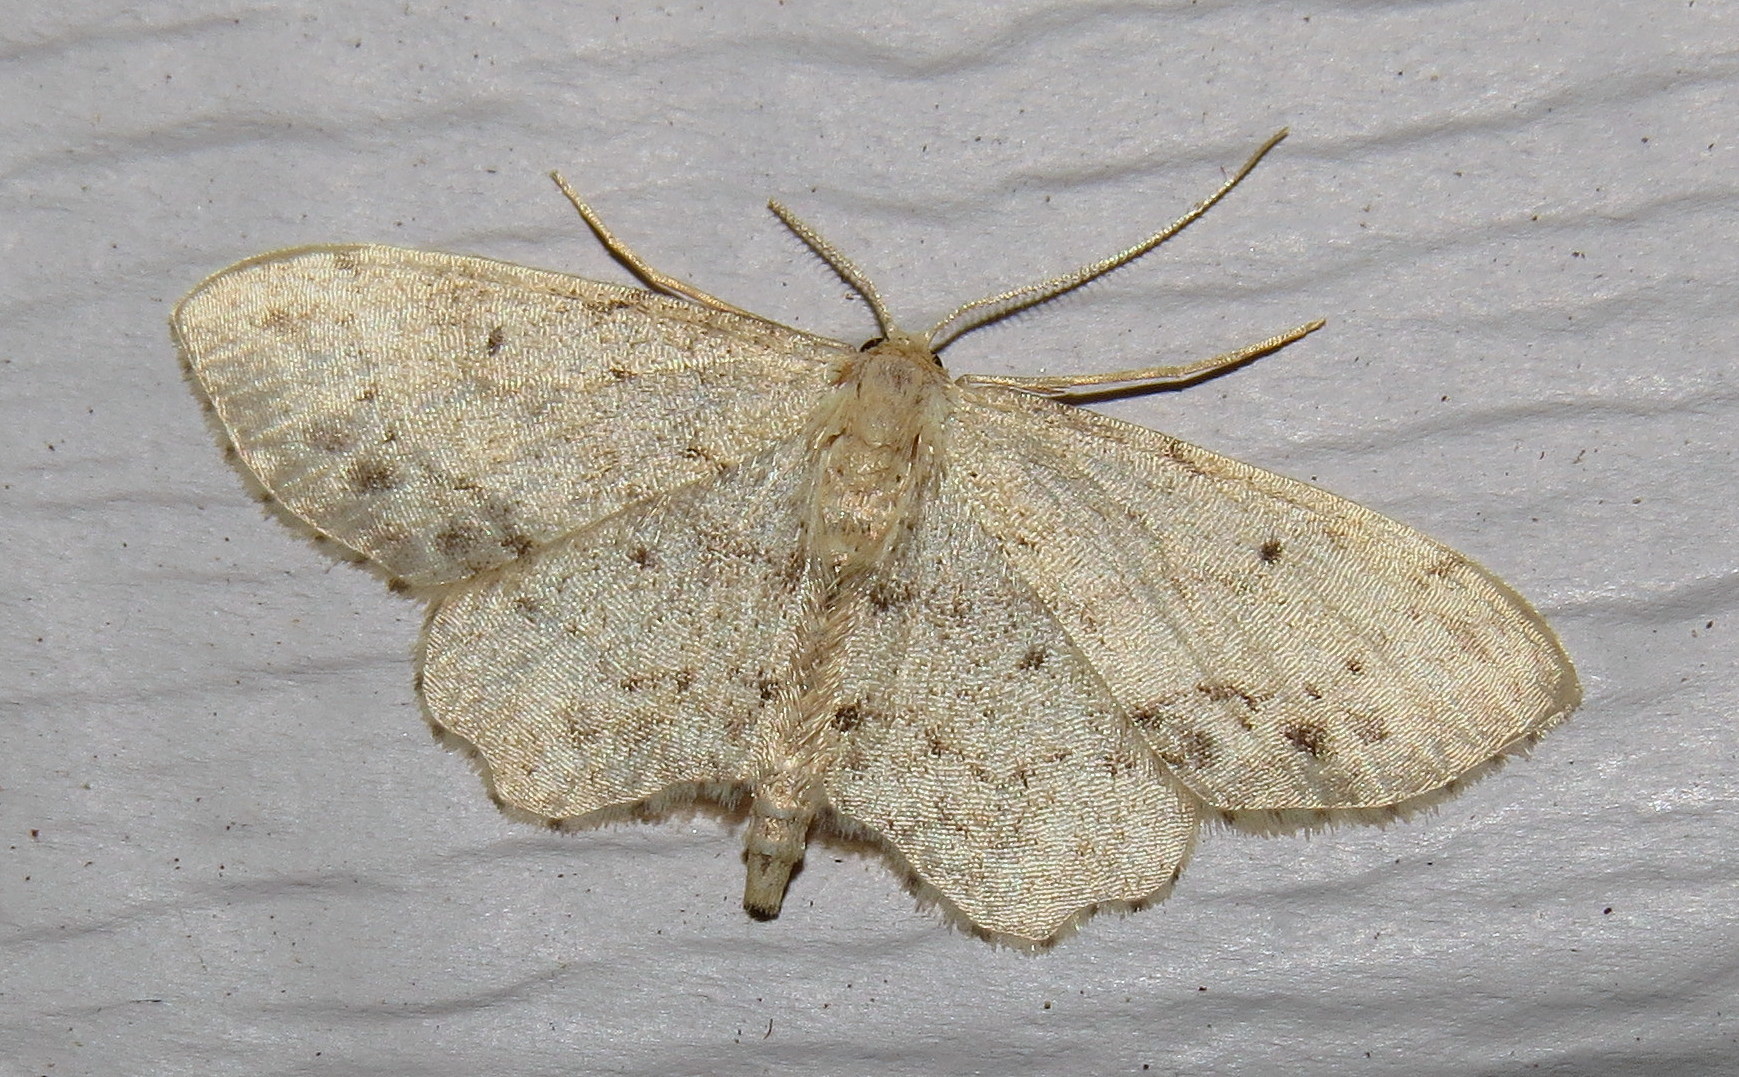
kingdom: Animalia
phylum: Arthropoda
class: Insecta
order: Lepidoptera
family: Geometridae
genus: Idaea
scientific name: Idaea dimidiata
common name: Single-dotted wave
